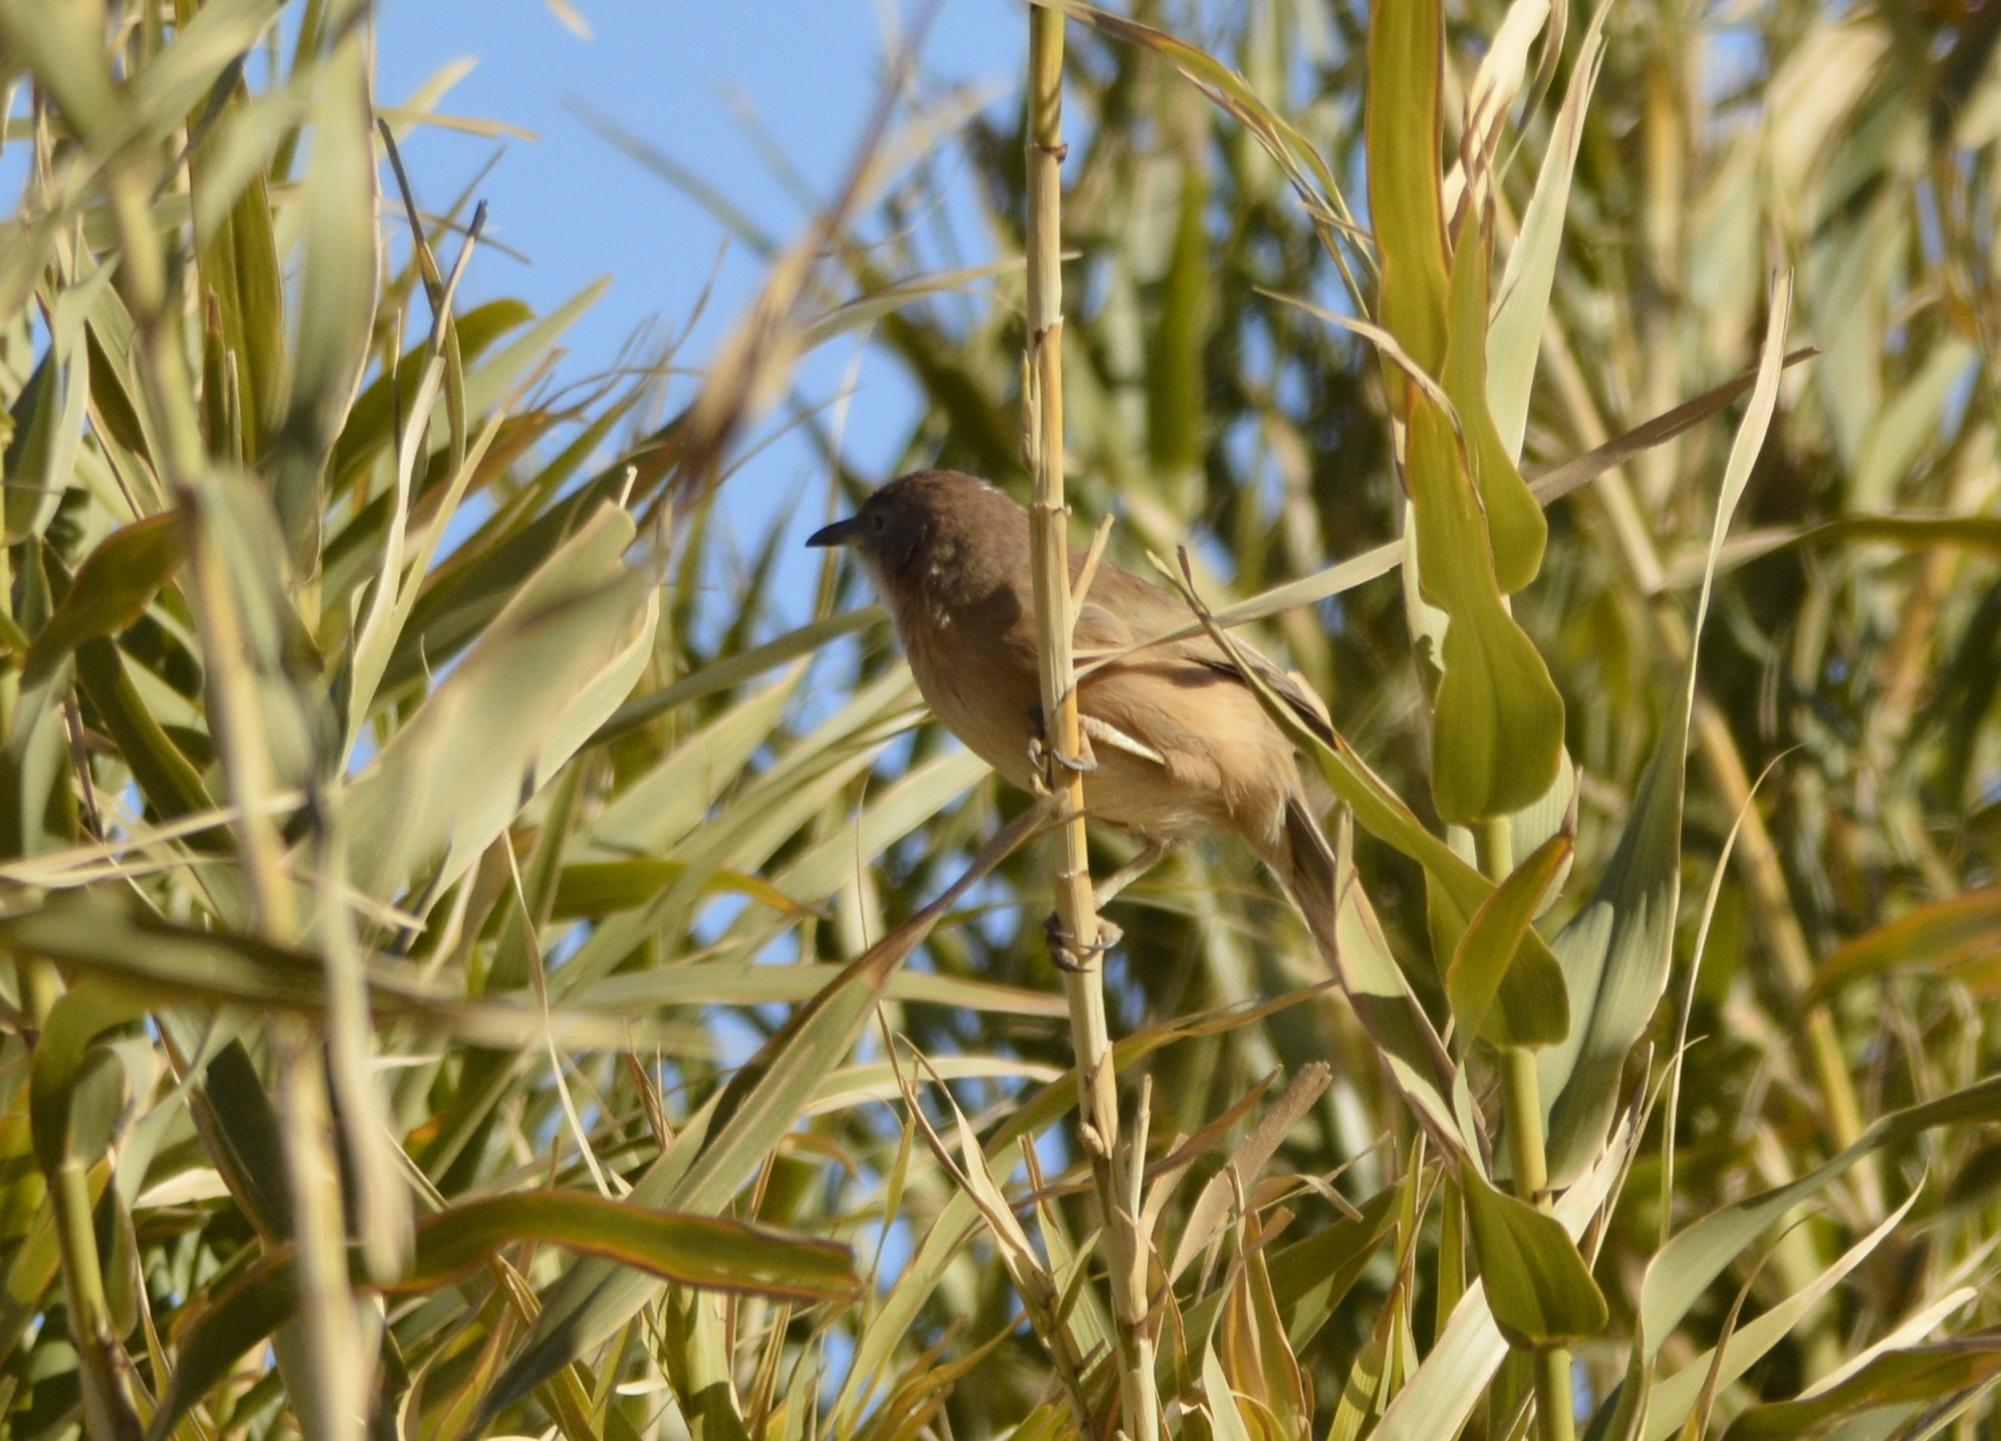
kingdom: Animalia
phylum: Chordata
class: Aves
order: Passeriformes
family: Leiothrichidae
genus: Turdoides
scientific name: Turdoides fulva
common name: Fulvous babbler
